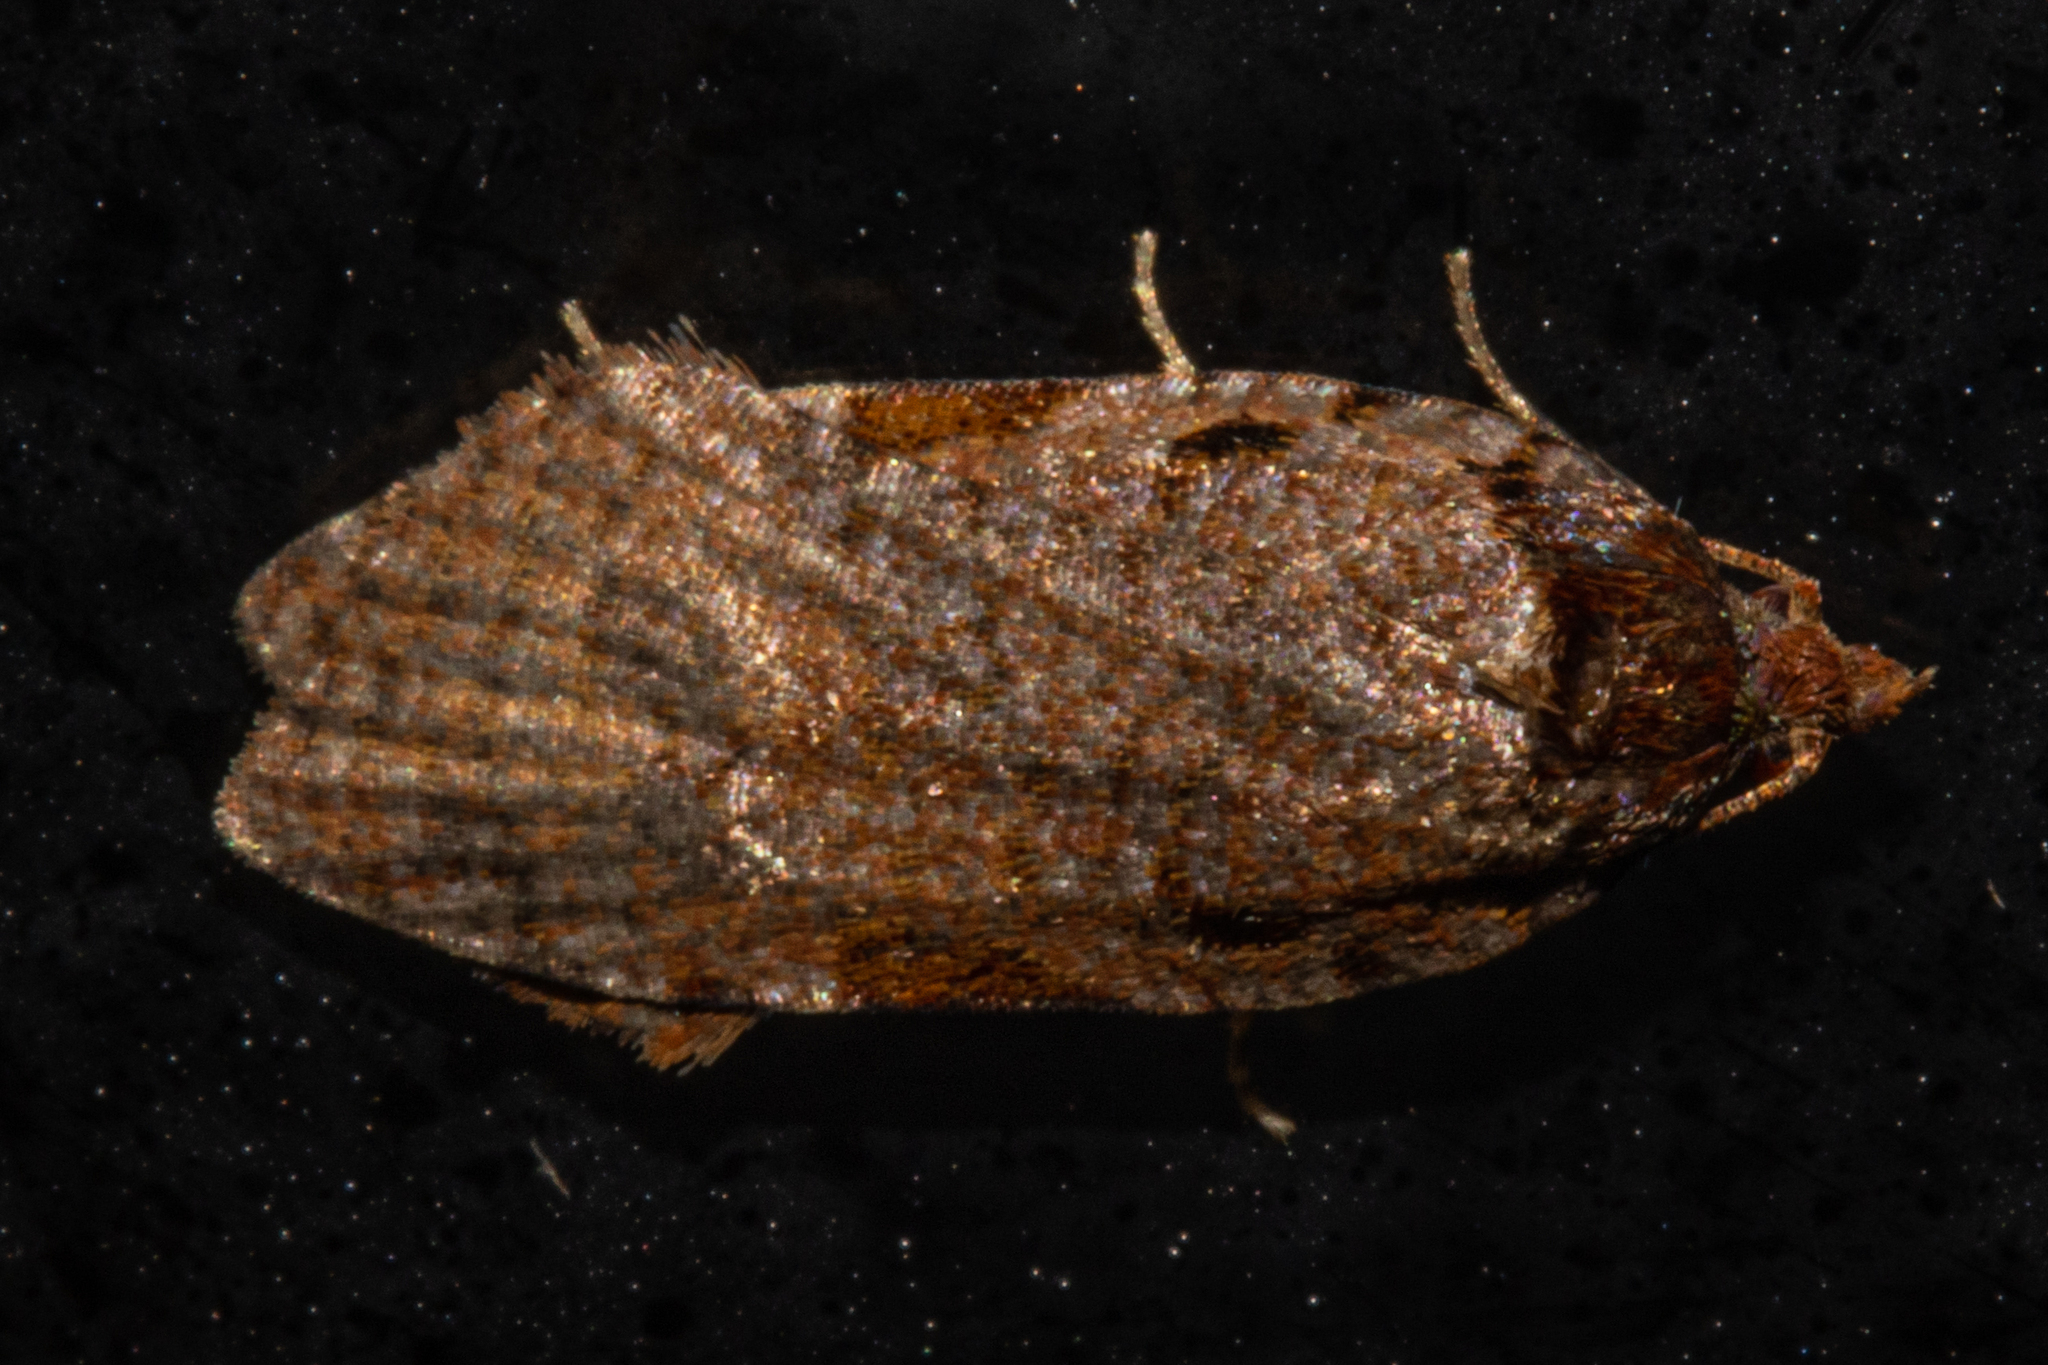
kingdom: Animalia
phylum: Arthropoda
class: Insecta
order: Lepidoptera
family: Tortricidae
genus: Cnephasia
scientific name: Cnephasia microbathra
